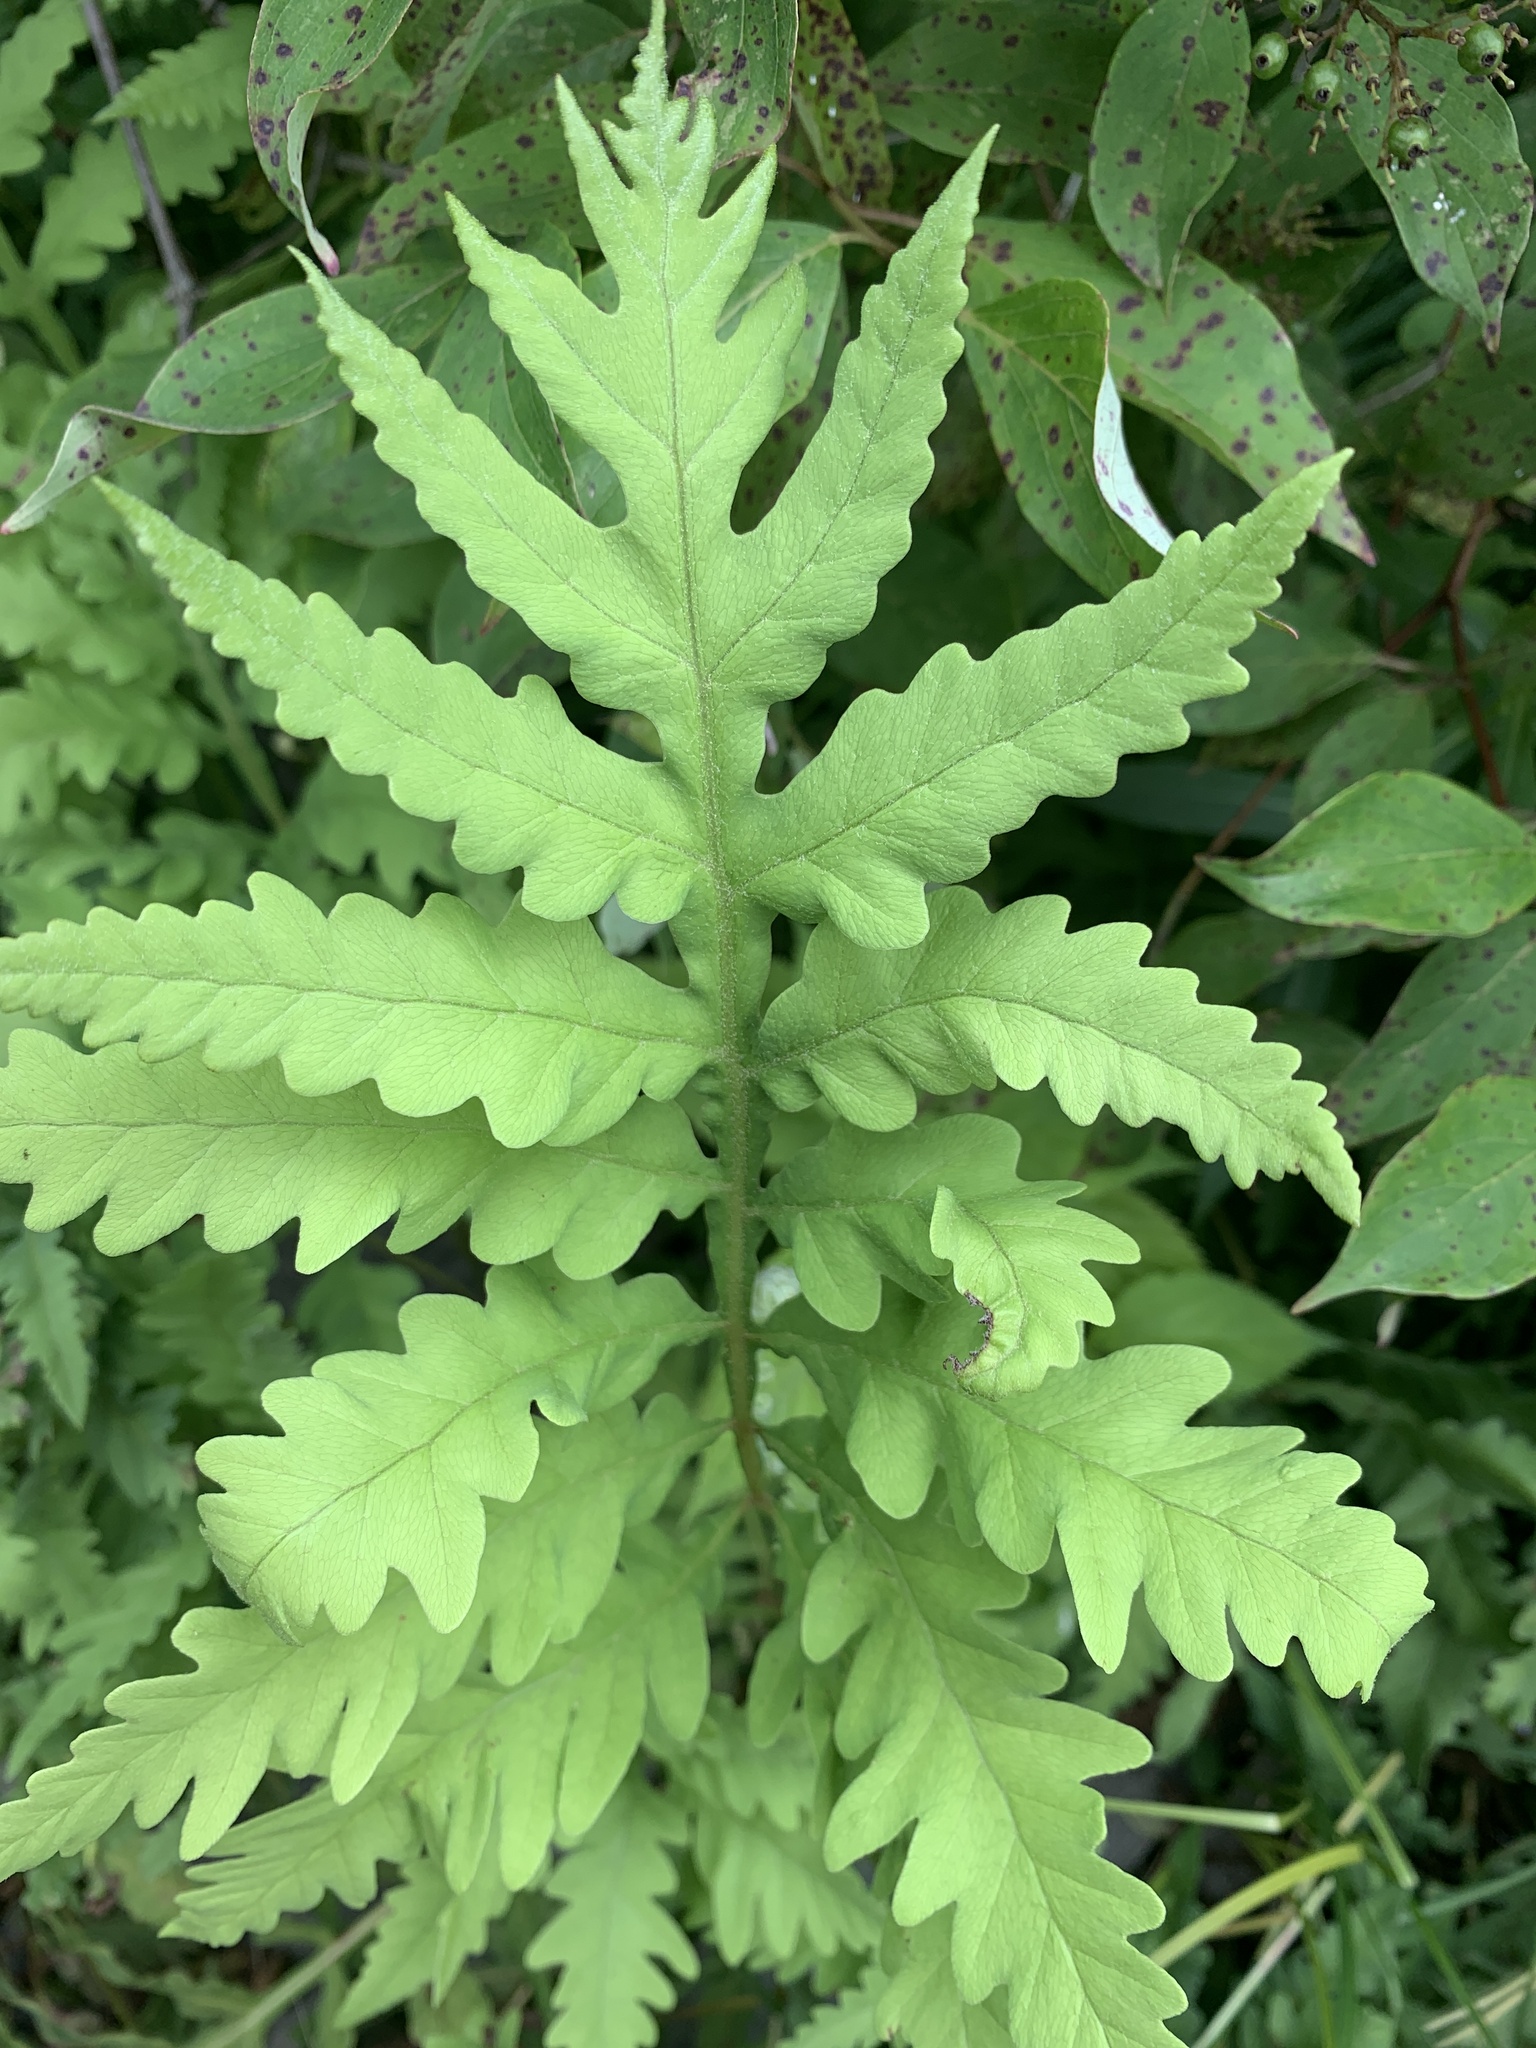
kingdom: Plantae
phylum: Tracheophyta
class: Polypodiopsida
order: Polypodiales
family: Onocleaceae
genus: Onoclea
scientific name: Onoclea sensibilis
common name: Sensitive fern
